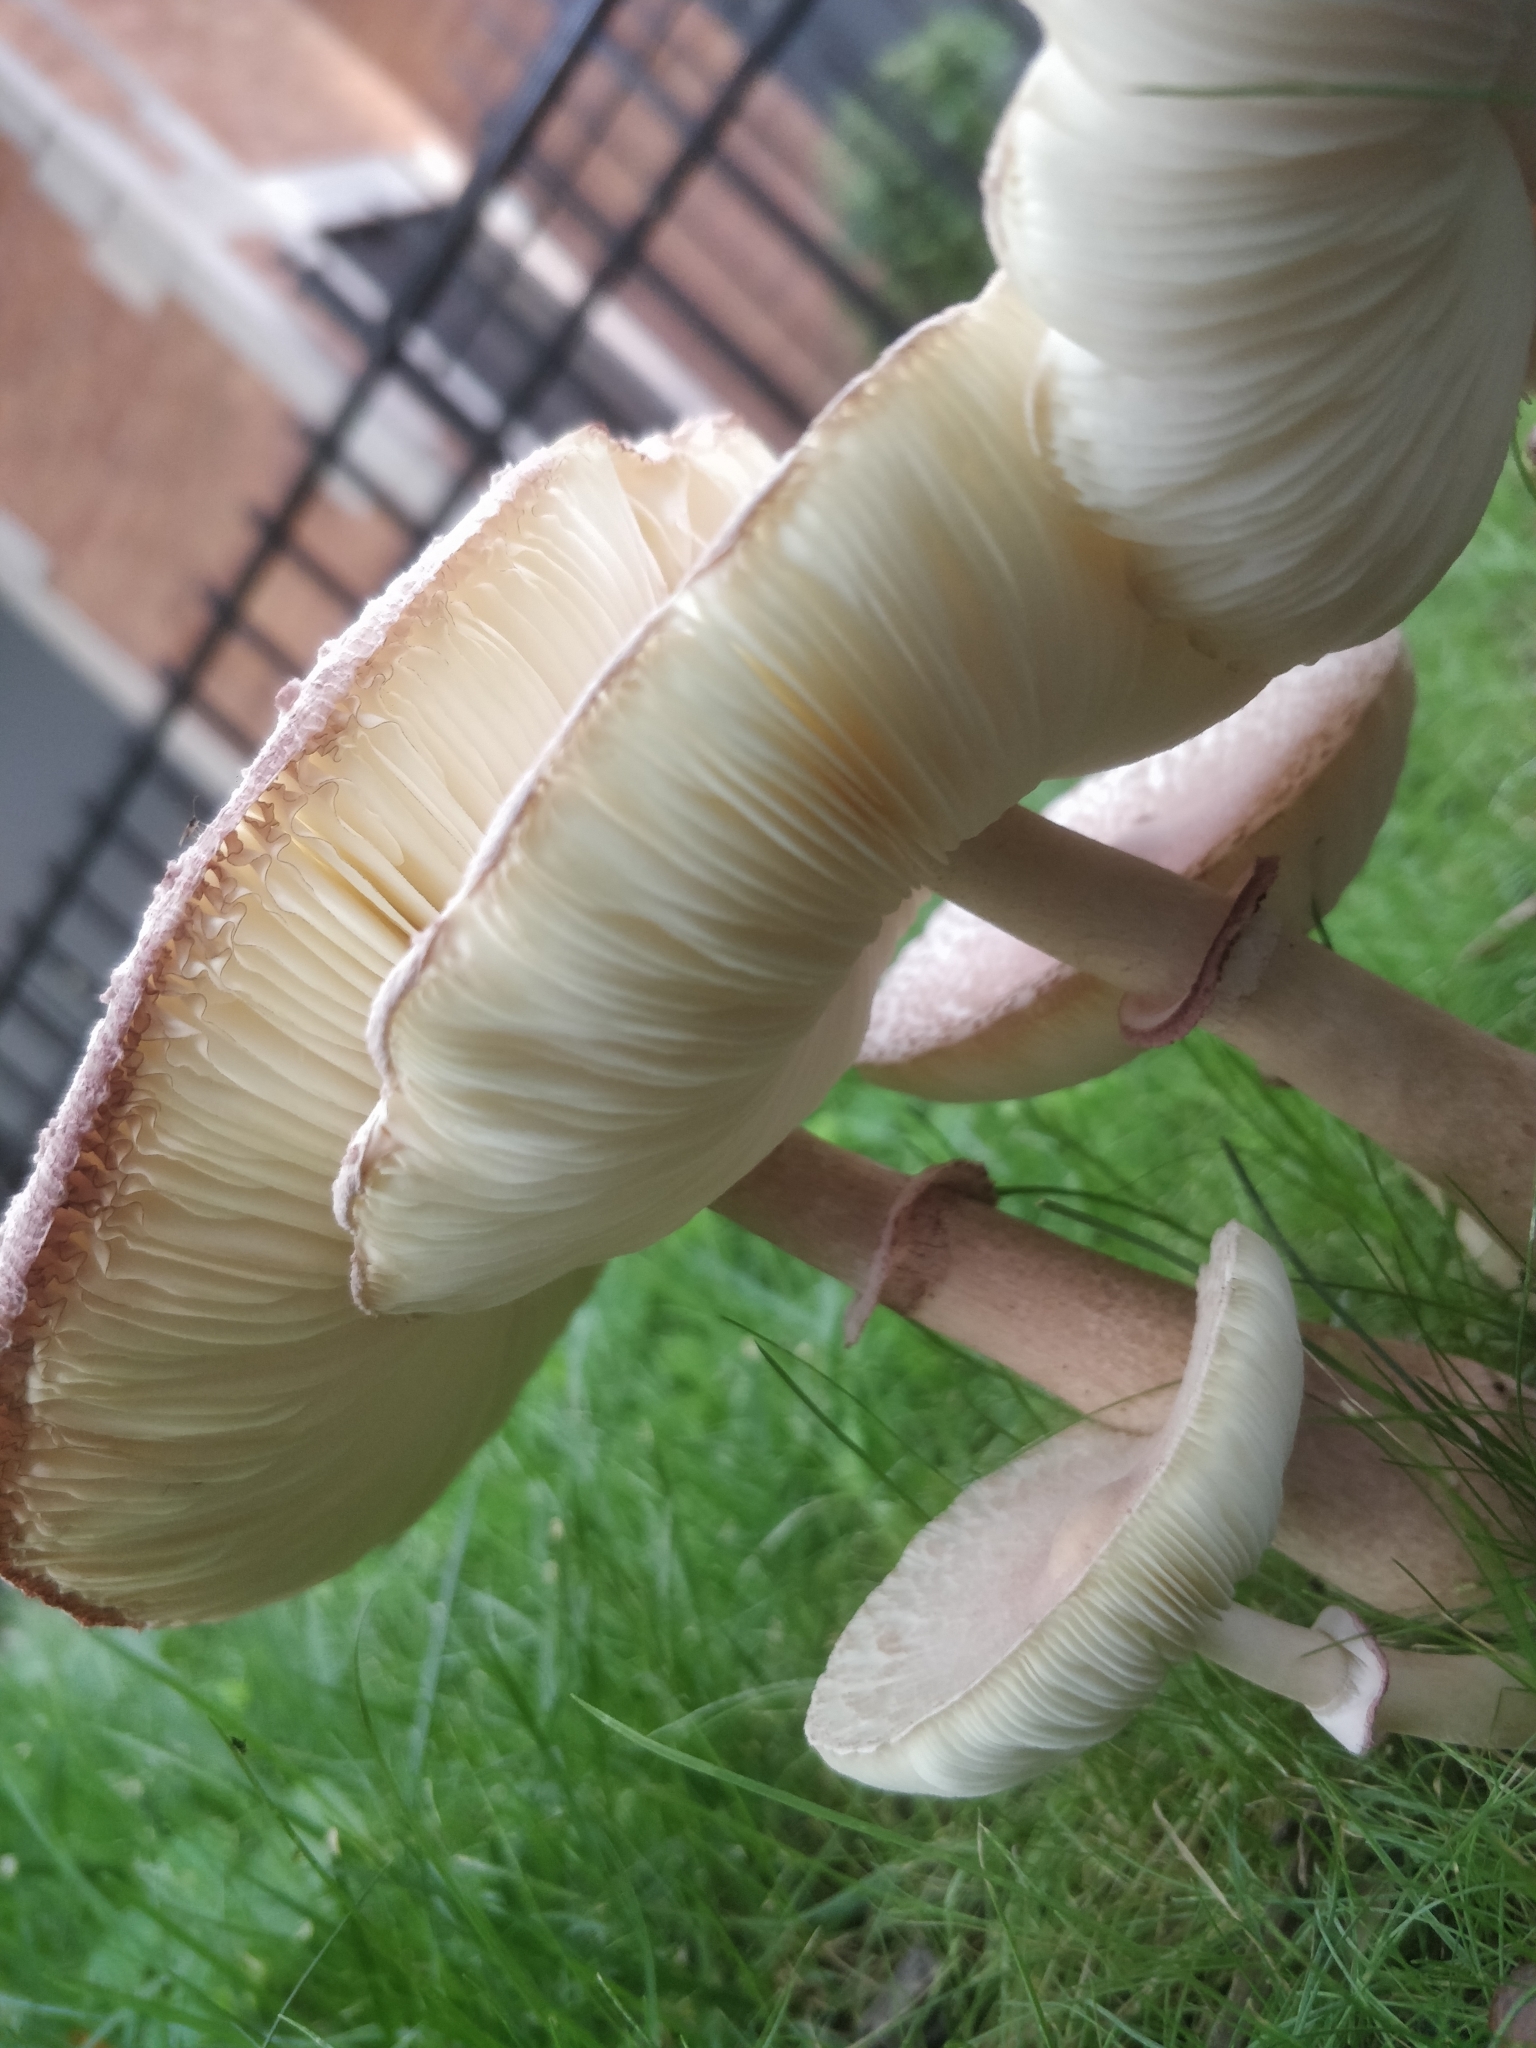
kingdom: Fungi
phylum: Basidiomycota
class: Agaricomycetes
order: Agaricales
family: Agaricaceae
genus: Leucoagaricus
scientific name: Leucoagaricus americanus
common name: Reddening lepiota
